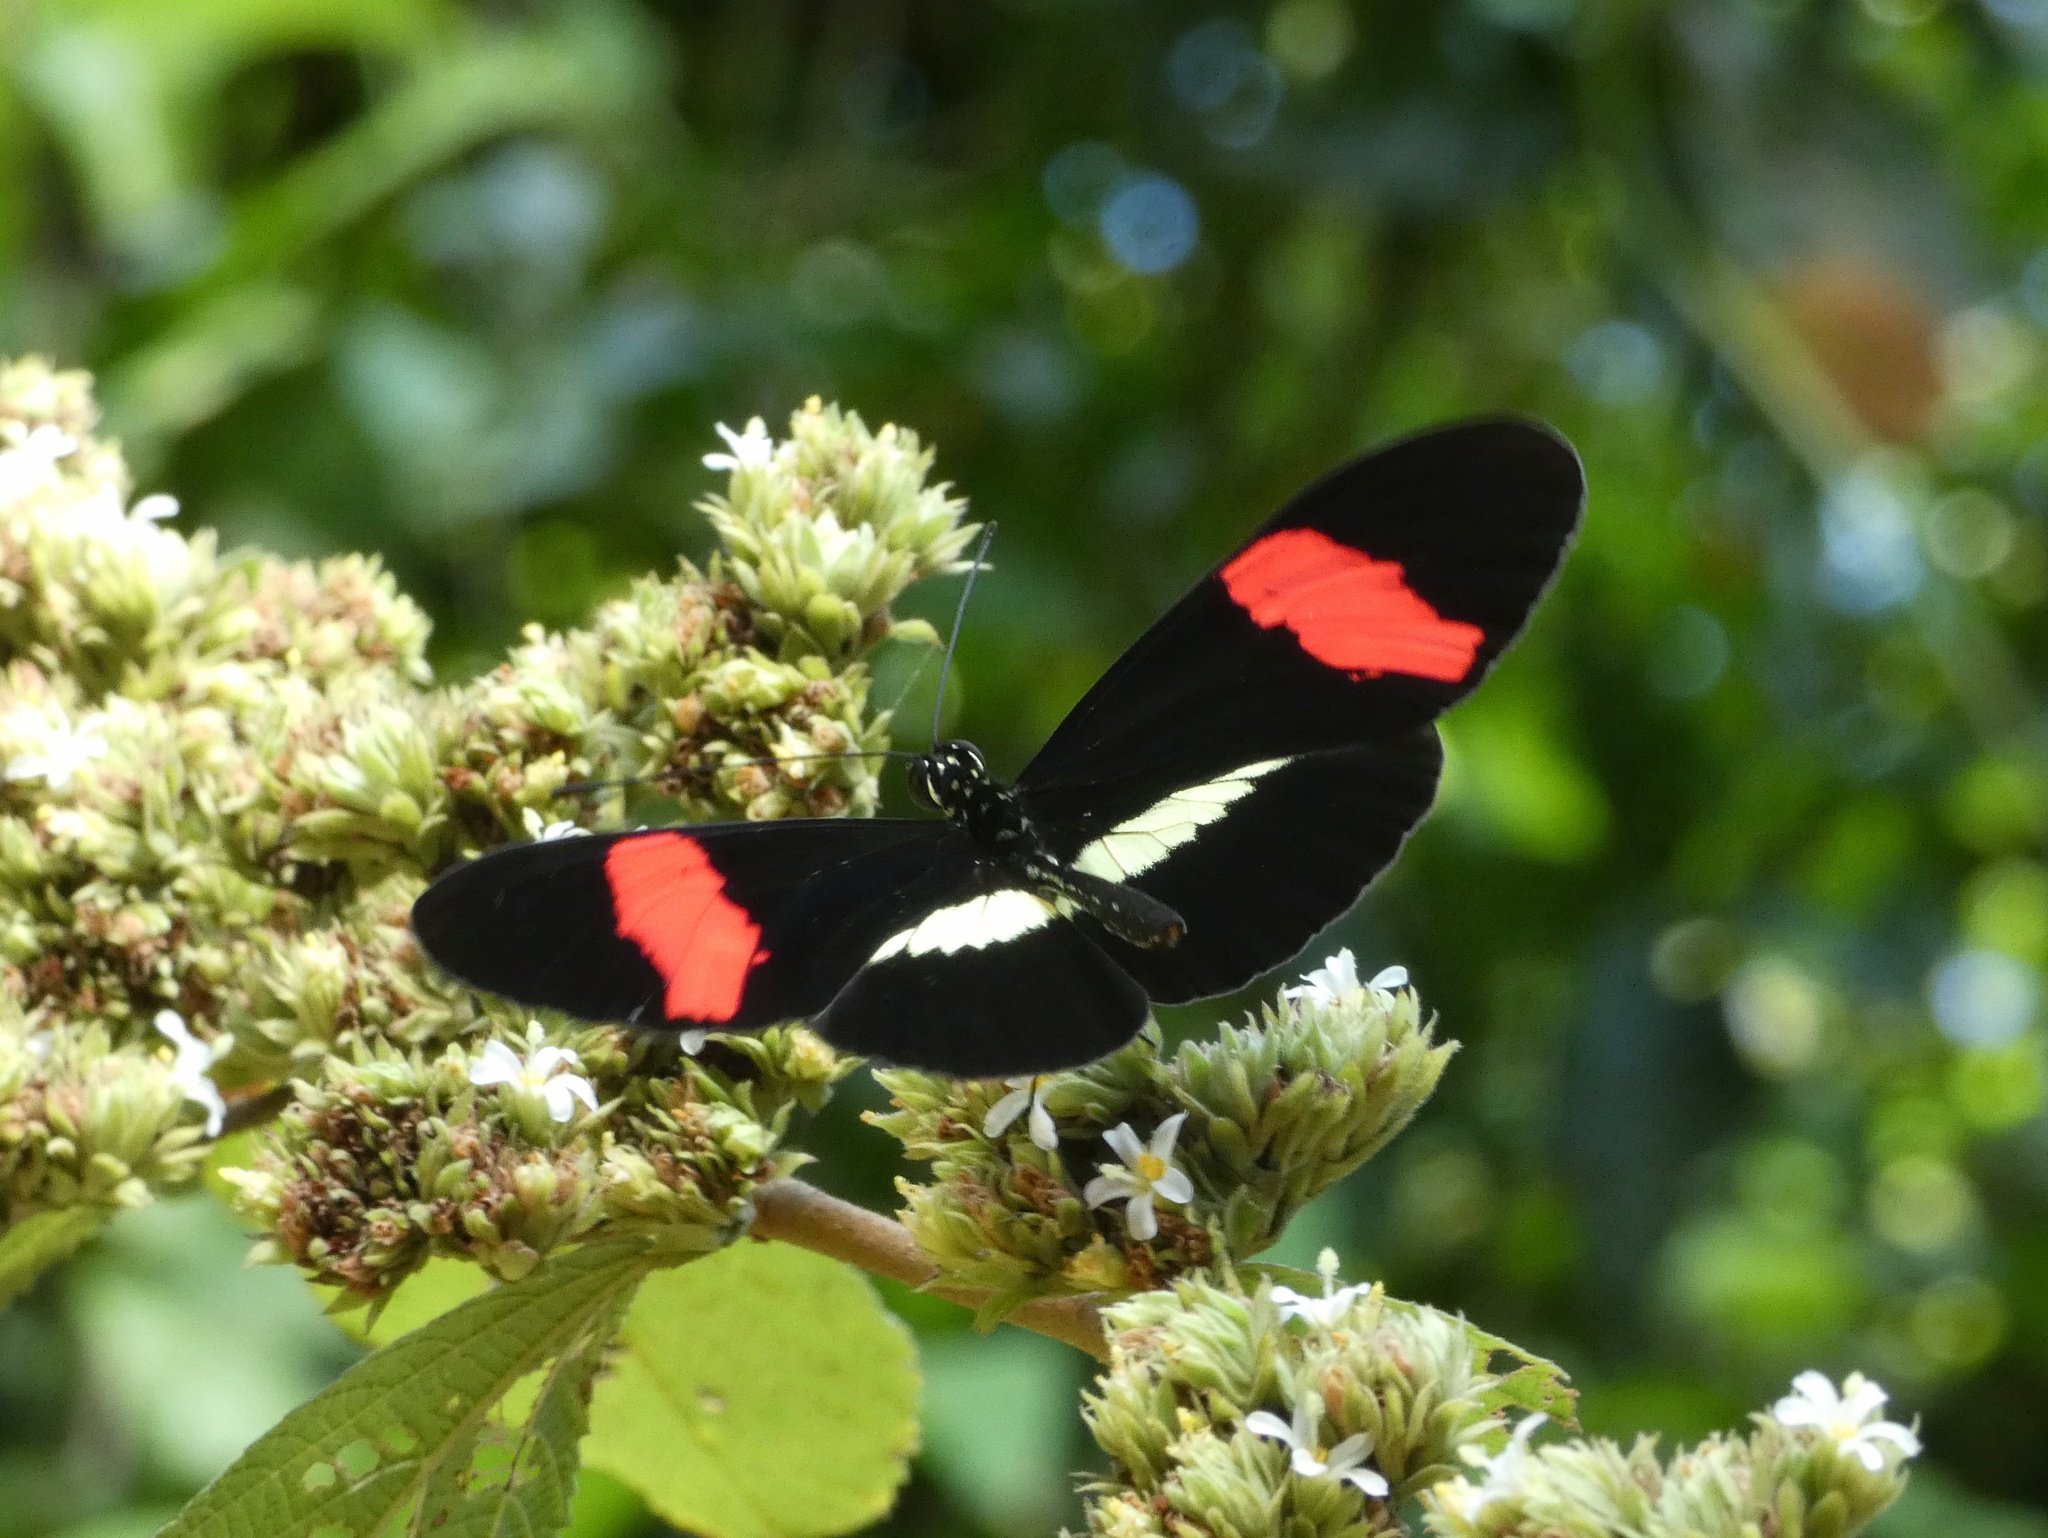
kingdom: Animalia
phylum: Arthropoda
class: Insecta
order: Lepidoptera
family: Nymphalidae
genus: Tirumala
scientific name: Tirumala petiverana
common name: Blue monarch
